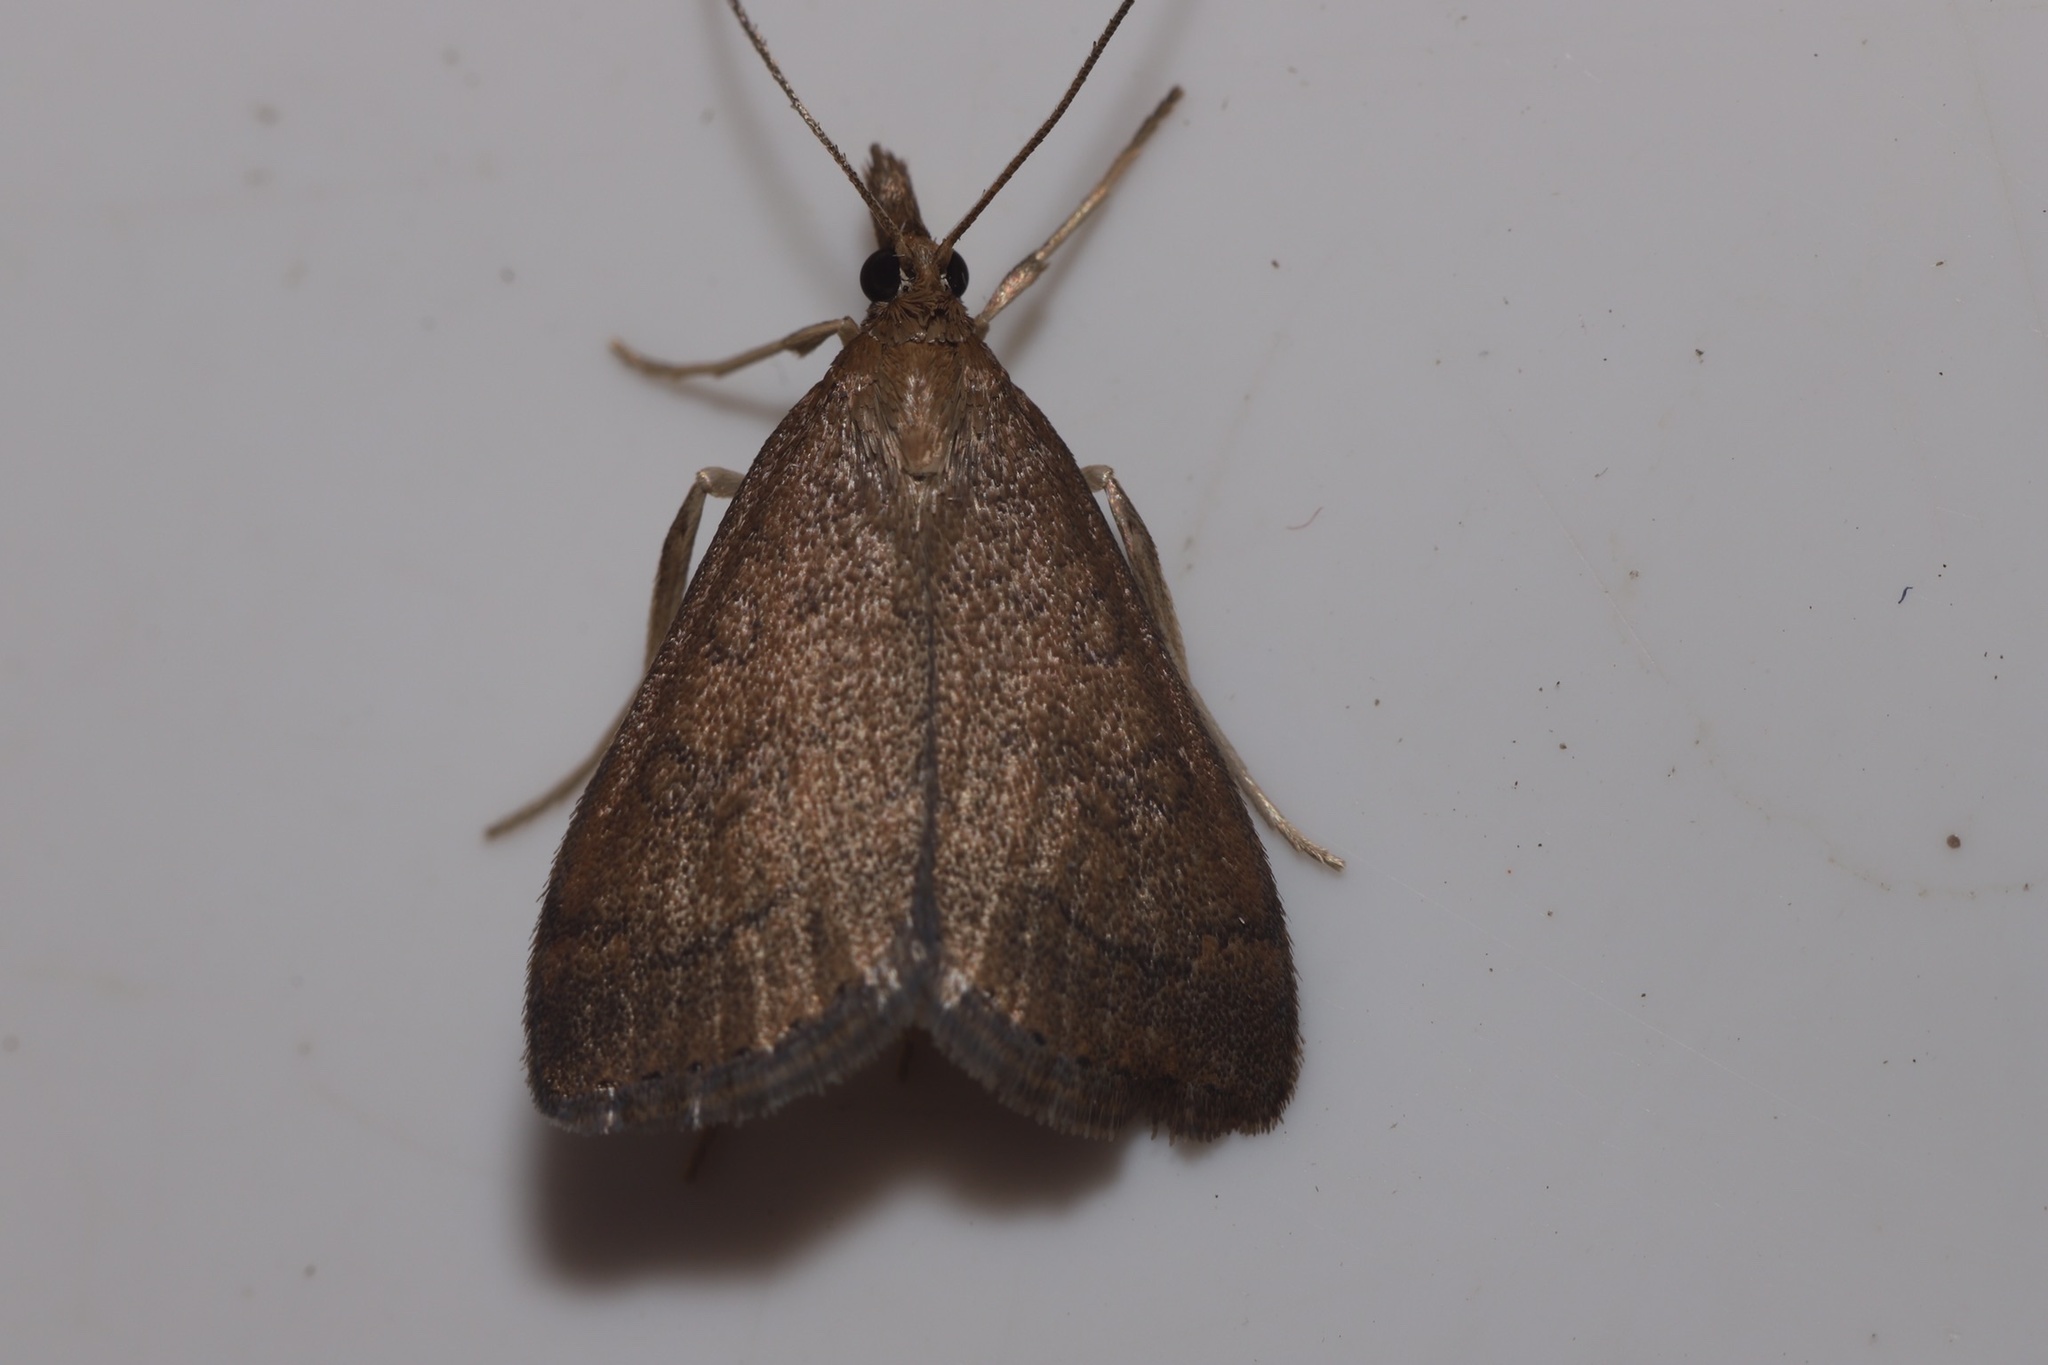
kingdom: Animalia
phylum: Arthropoda
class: Insecta
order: Lepidoptera
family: Crambidae
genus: Udea
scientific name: Udea rubigalis
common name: Celery leaftier moth
